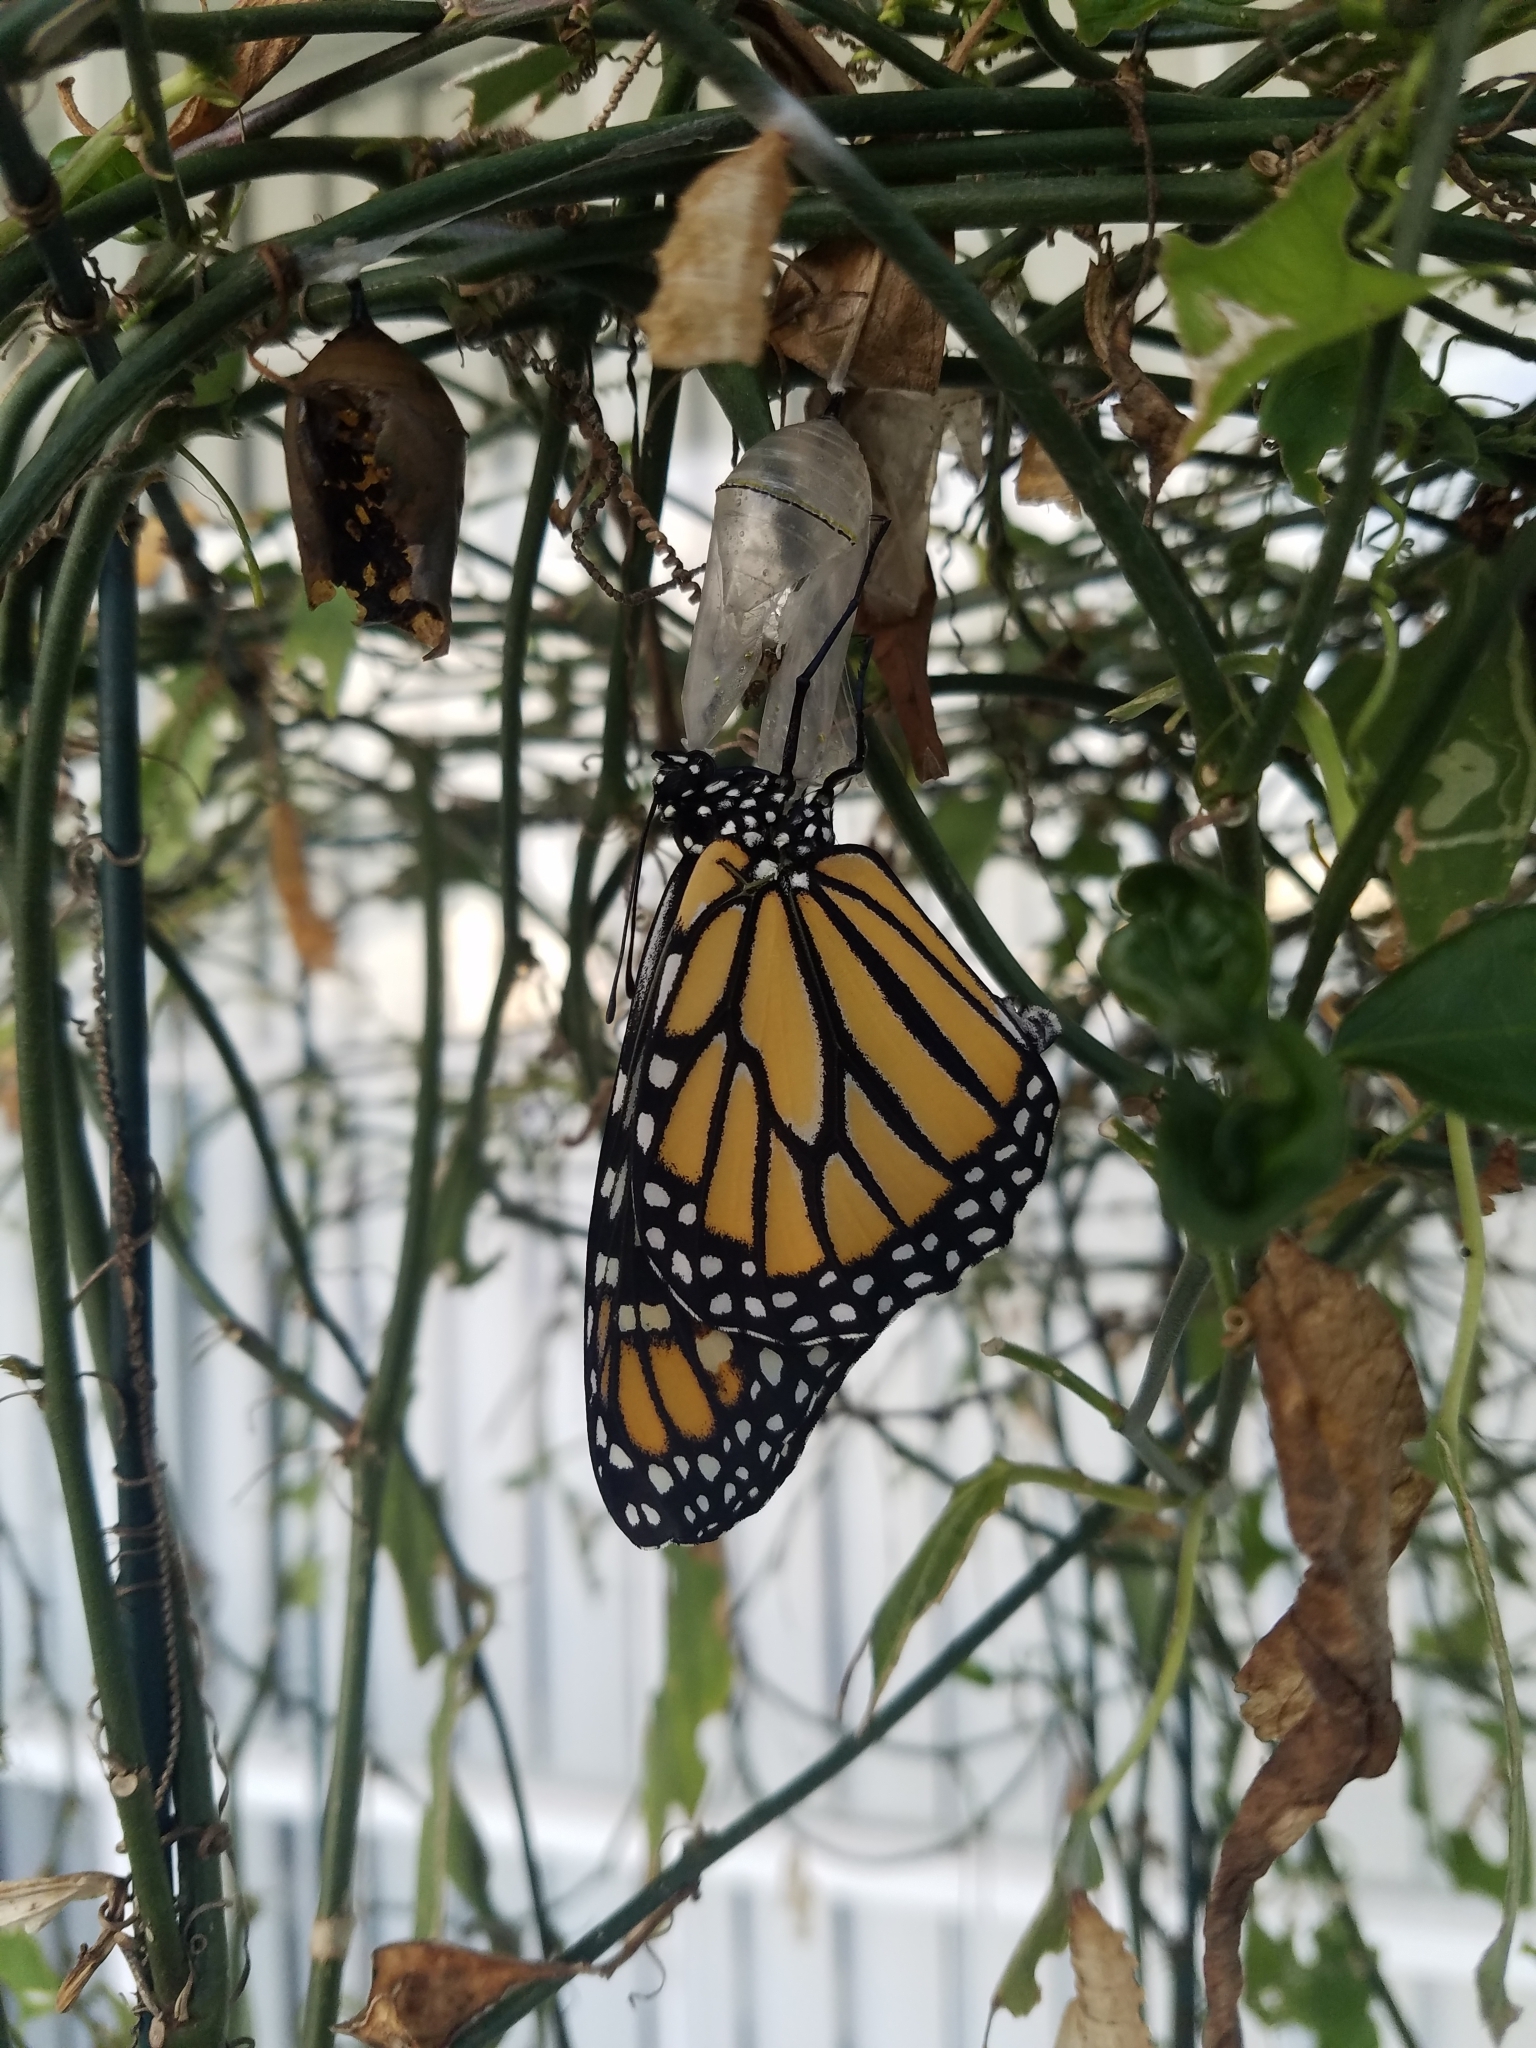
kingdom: Animalia
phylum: Arthropoda
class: Insecta
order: Lepidoptera
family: Nymphalidae
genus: Danaus
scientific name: Danaus plexippus
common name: Monarch
